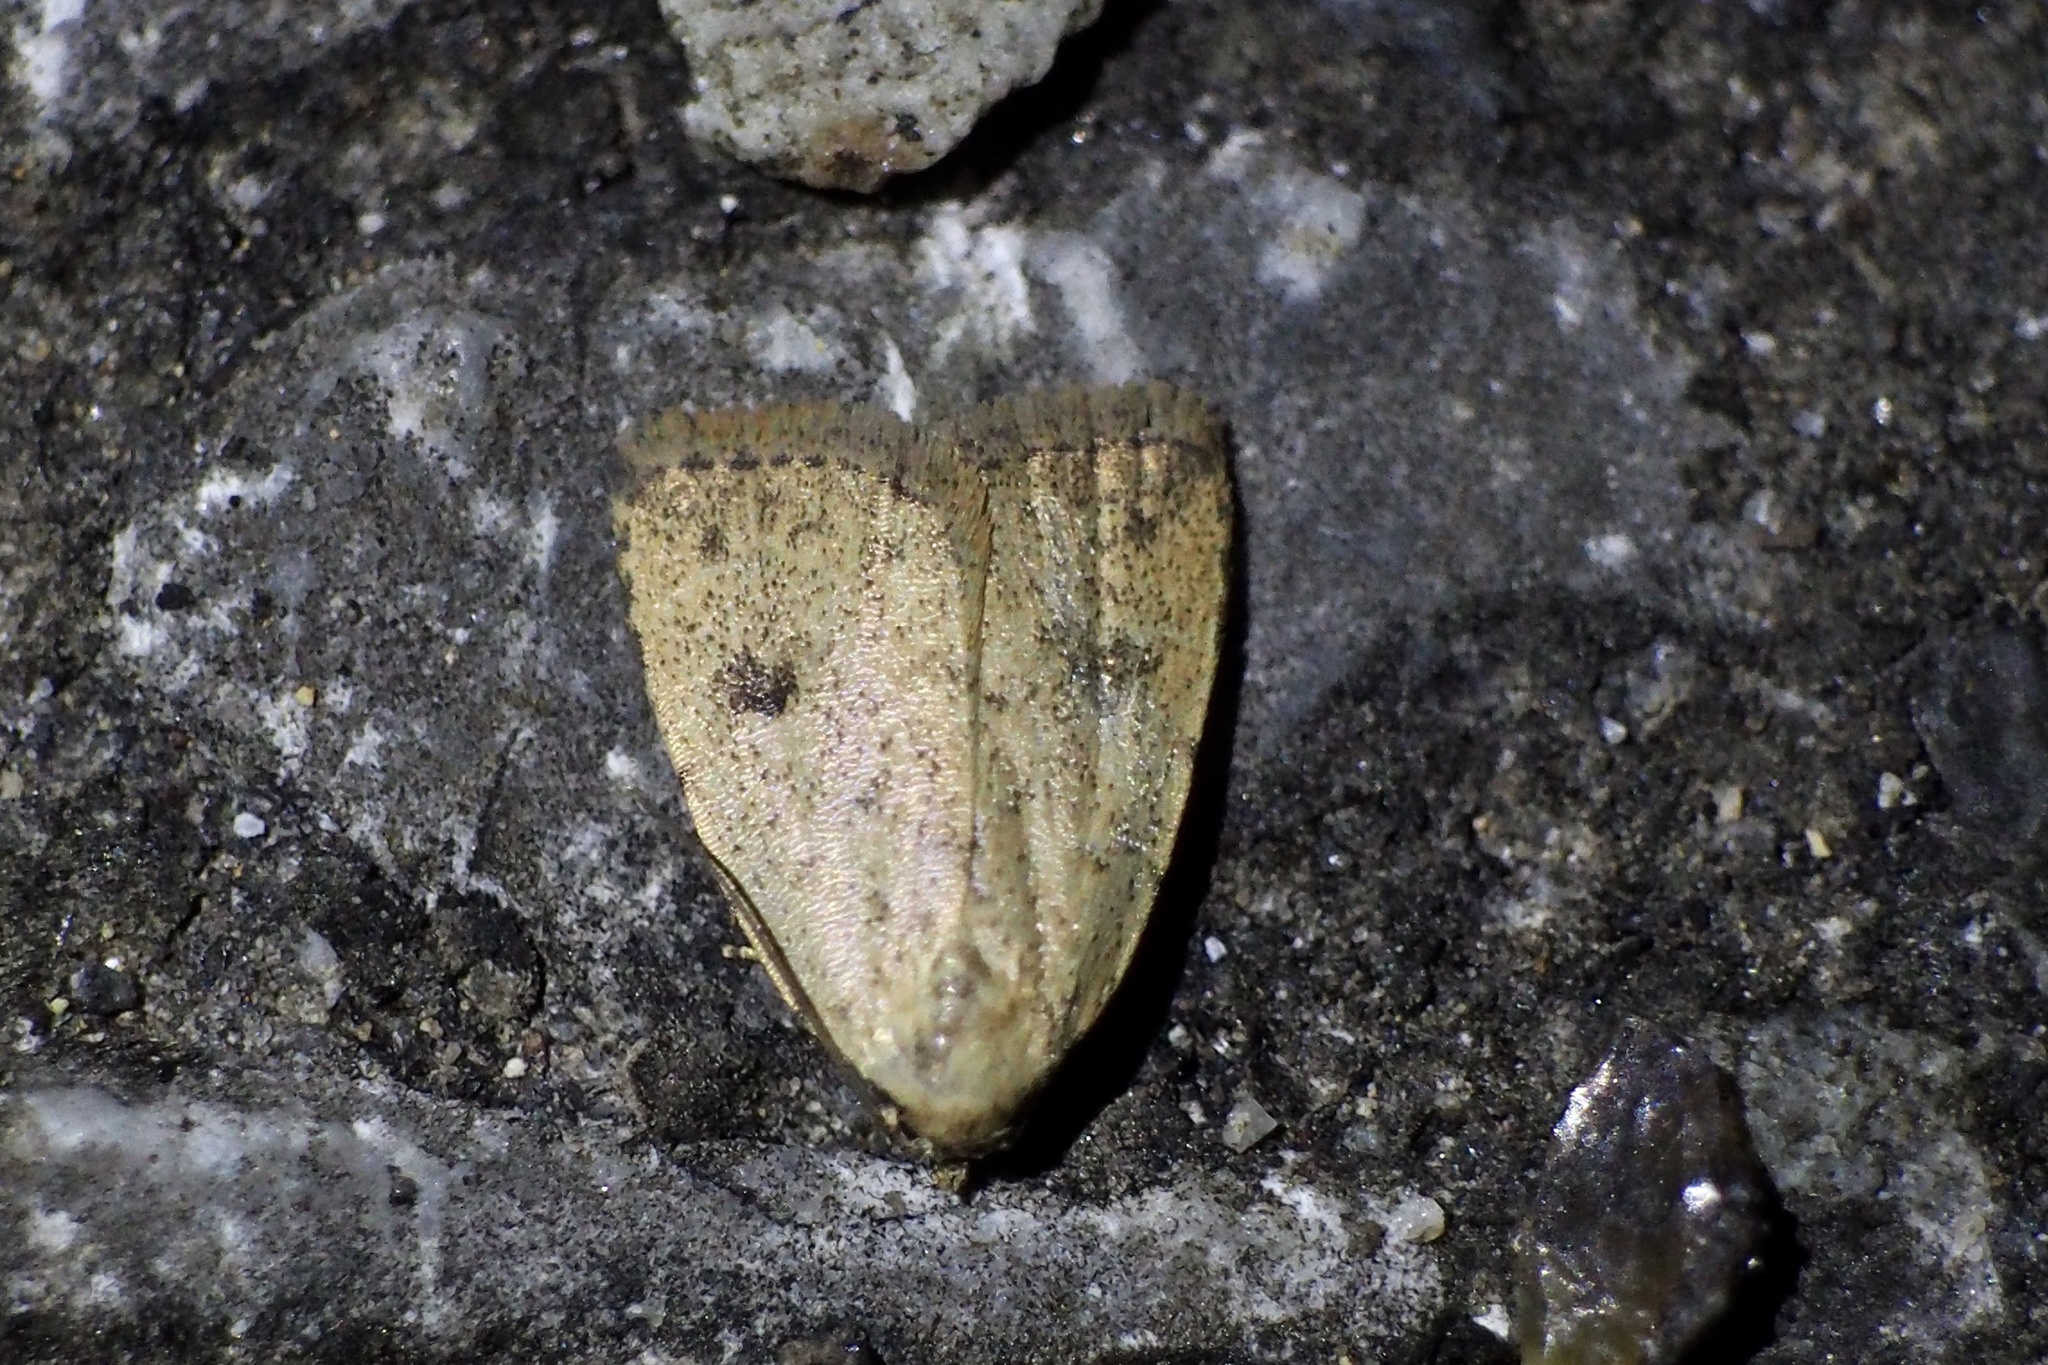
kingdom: Animalia
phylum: Arthropoda
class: Insecta
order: Lepidoptera
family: Erebidae
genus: Anachrostis
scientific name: Anachrostis
